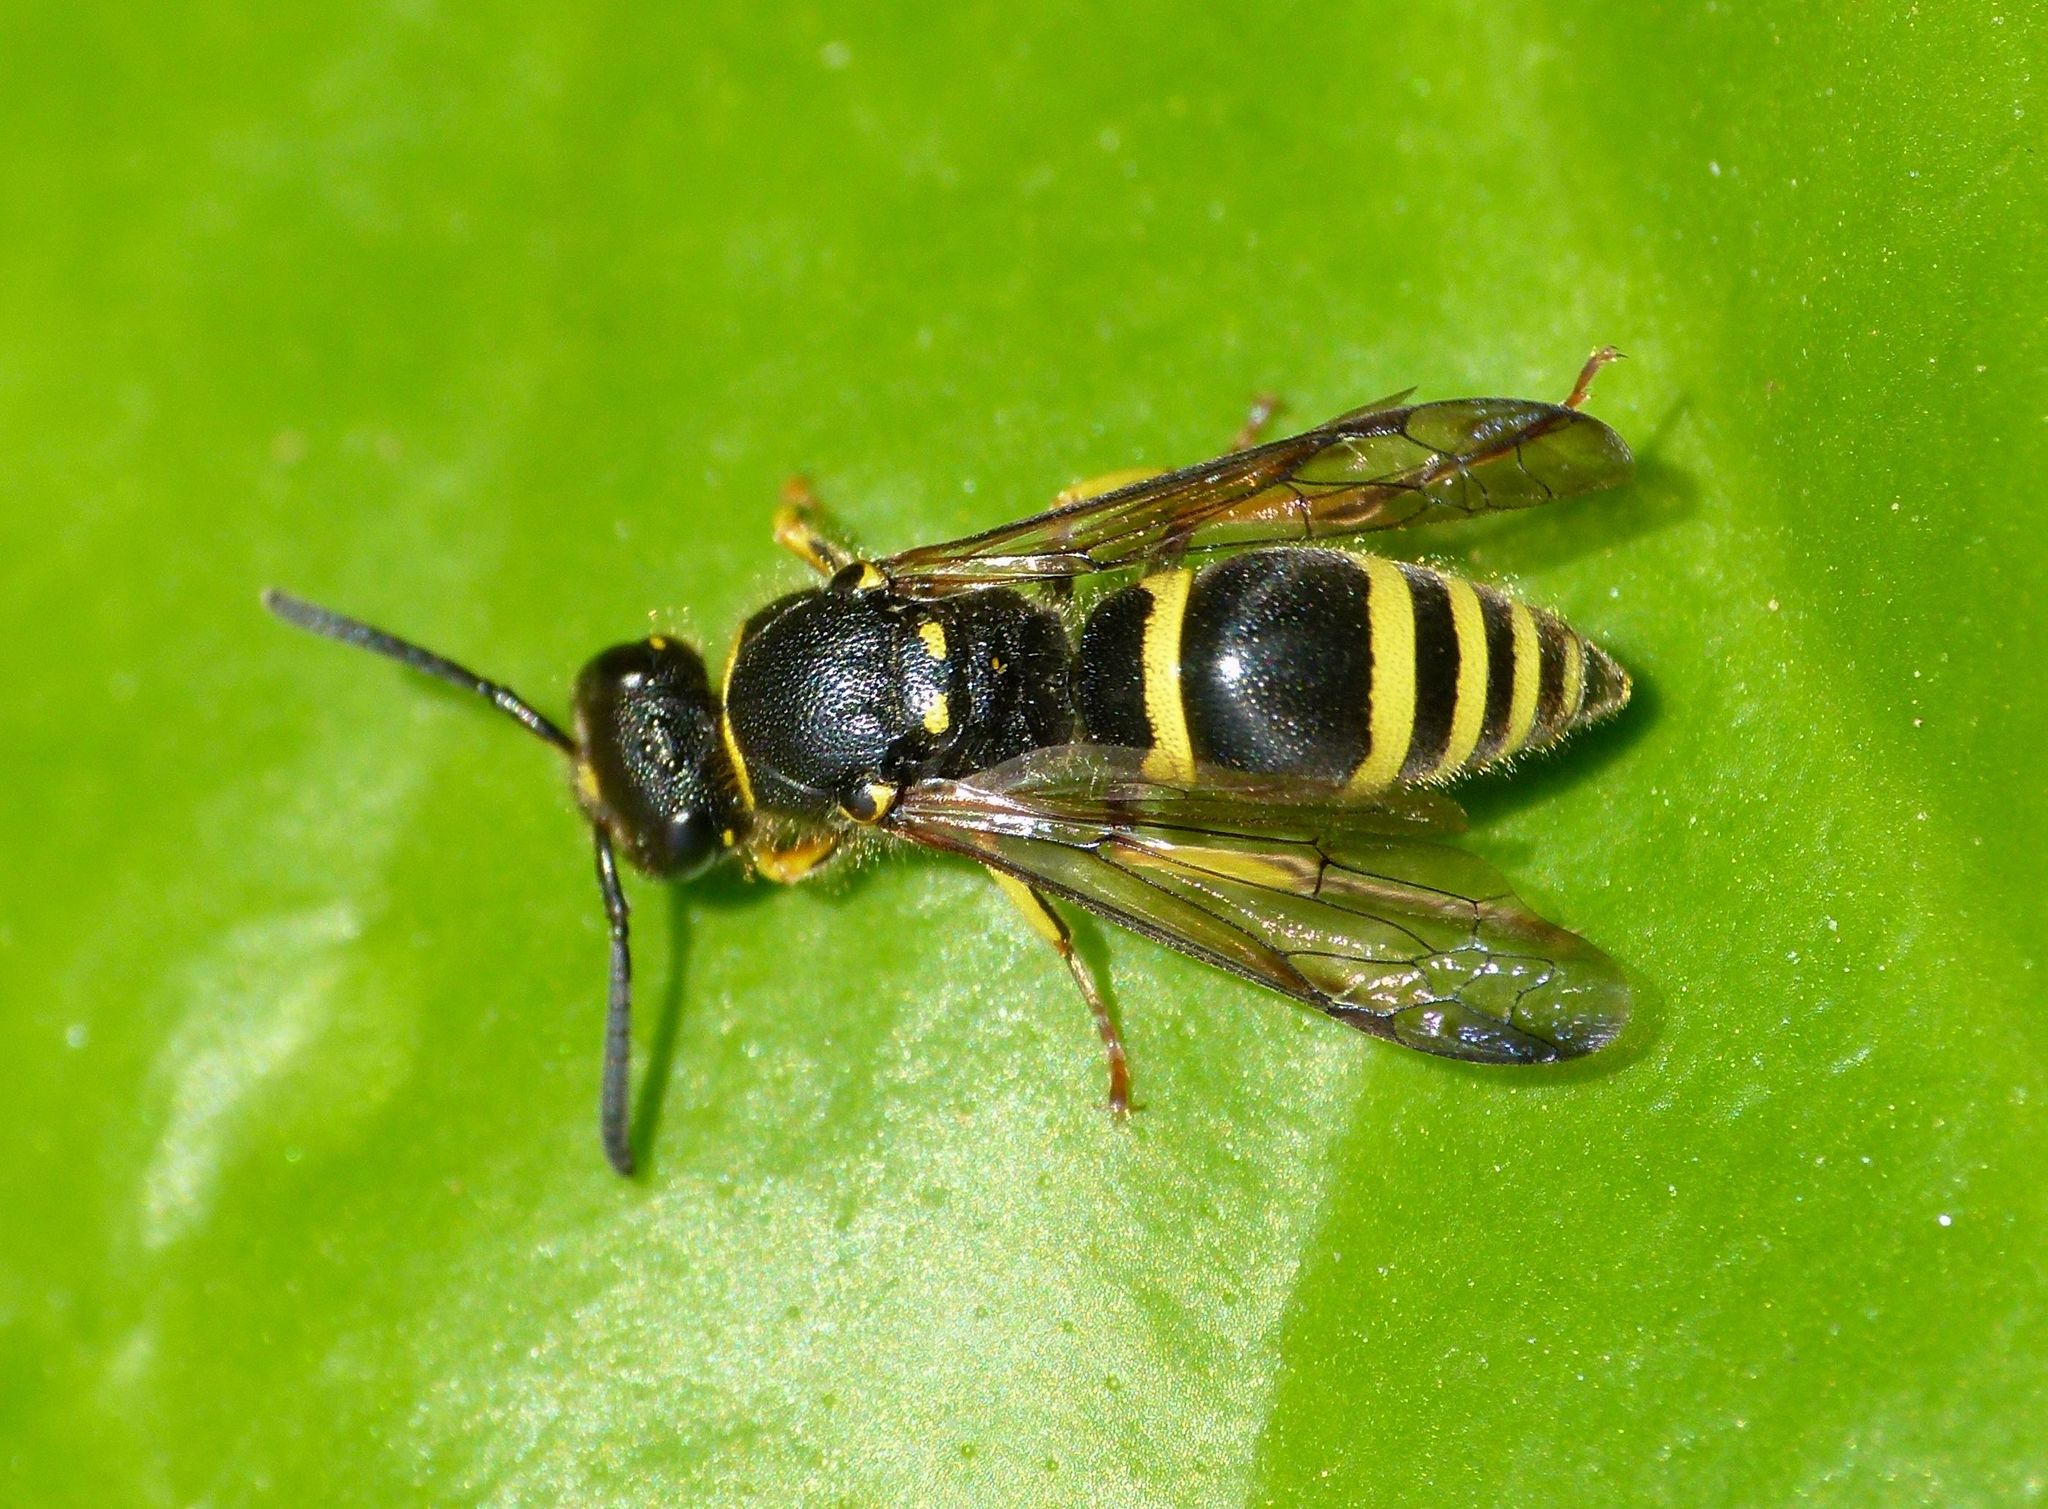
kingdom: Animalia
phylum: Arthropoda
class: Insecta
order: Hymenoptera
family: Vespidae
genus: Ancistrocerus
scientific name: Ancistrocerus gazella
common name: European tube wasp
